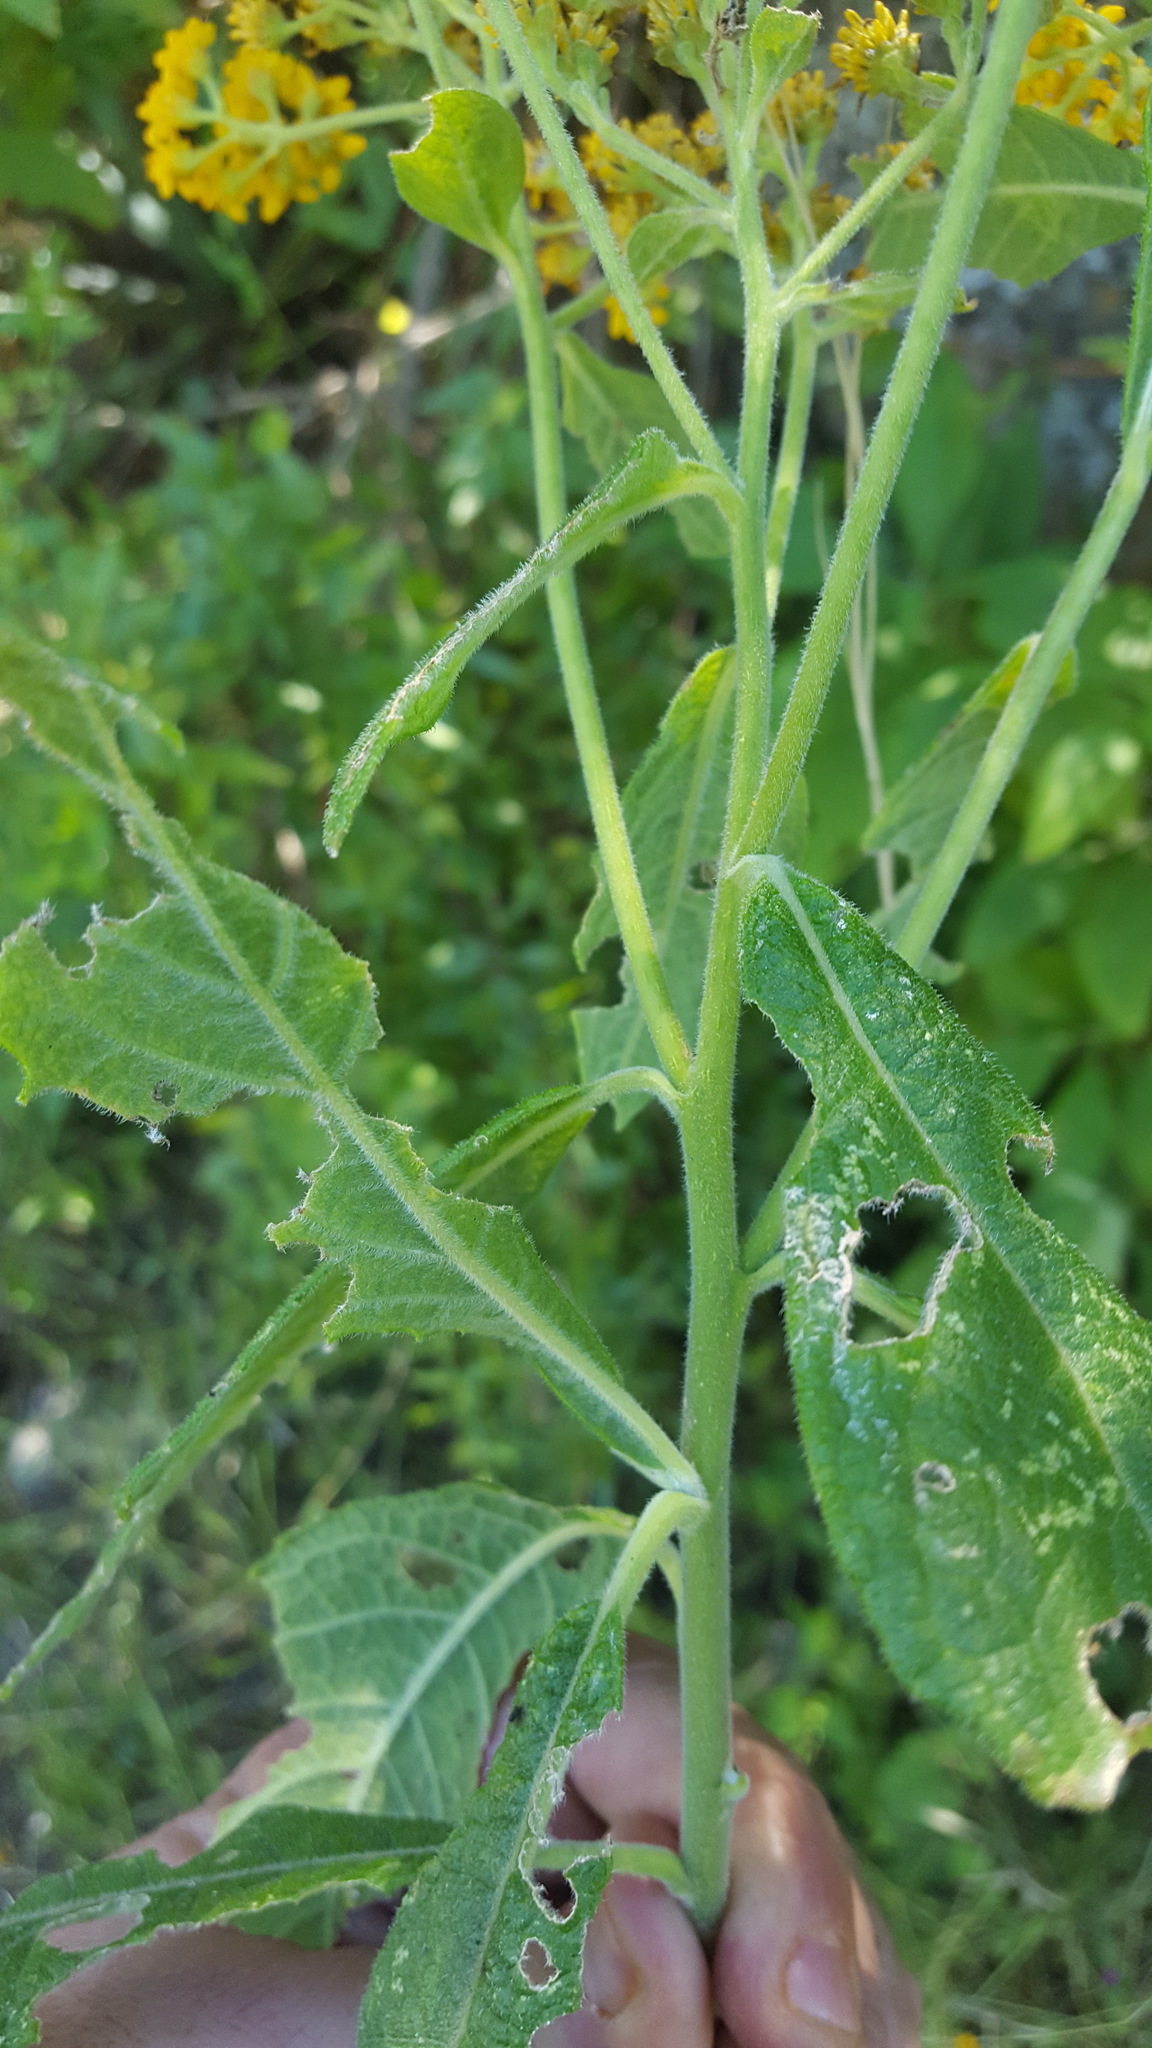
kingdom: Plantae
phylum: Tracheophyta
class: Magnoliopsida
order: Asterales
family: Asteraceae
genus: Verbesina
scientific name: Verbesina abscondita
